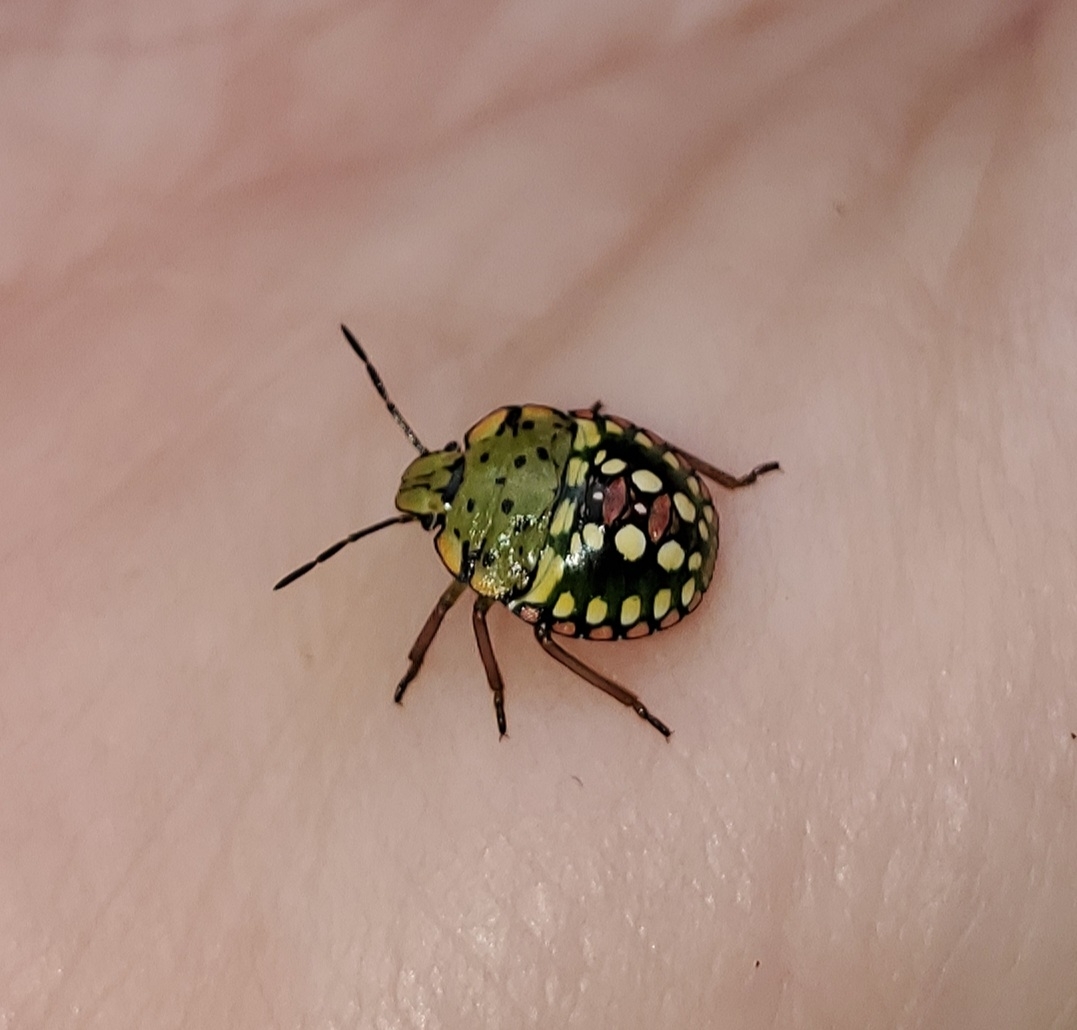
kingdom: Animalia
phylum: Arthropoda
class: Insecta
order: Hemiptera
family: Pentatomidae
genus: Nezara
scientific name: Nezara viridula
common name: Southern green stink bug
